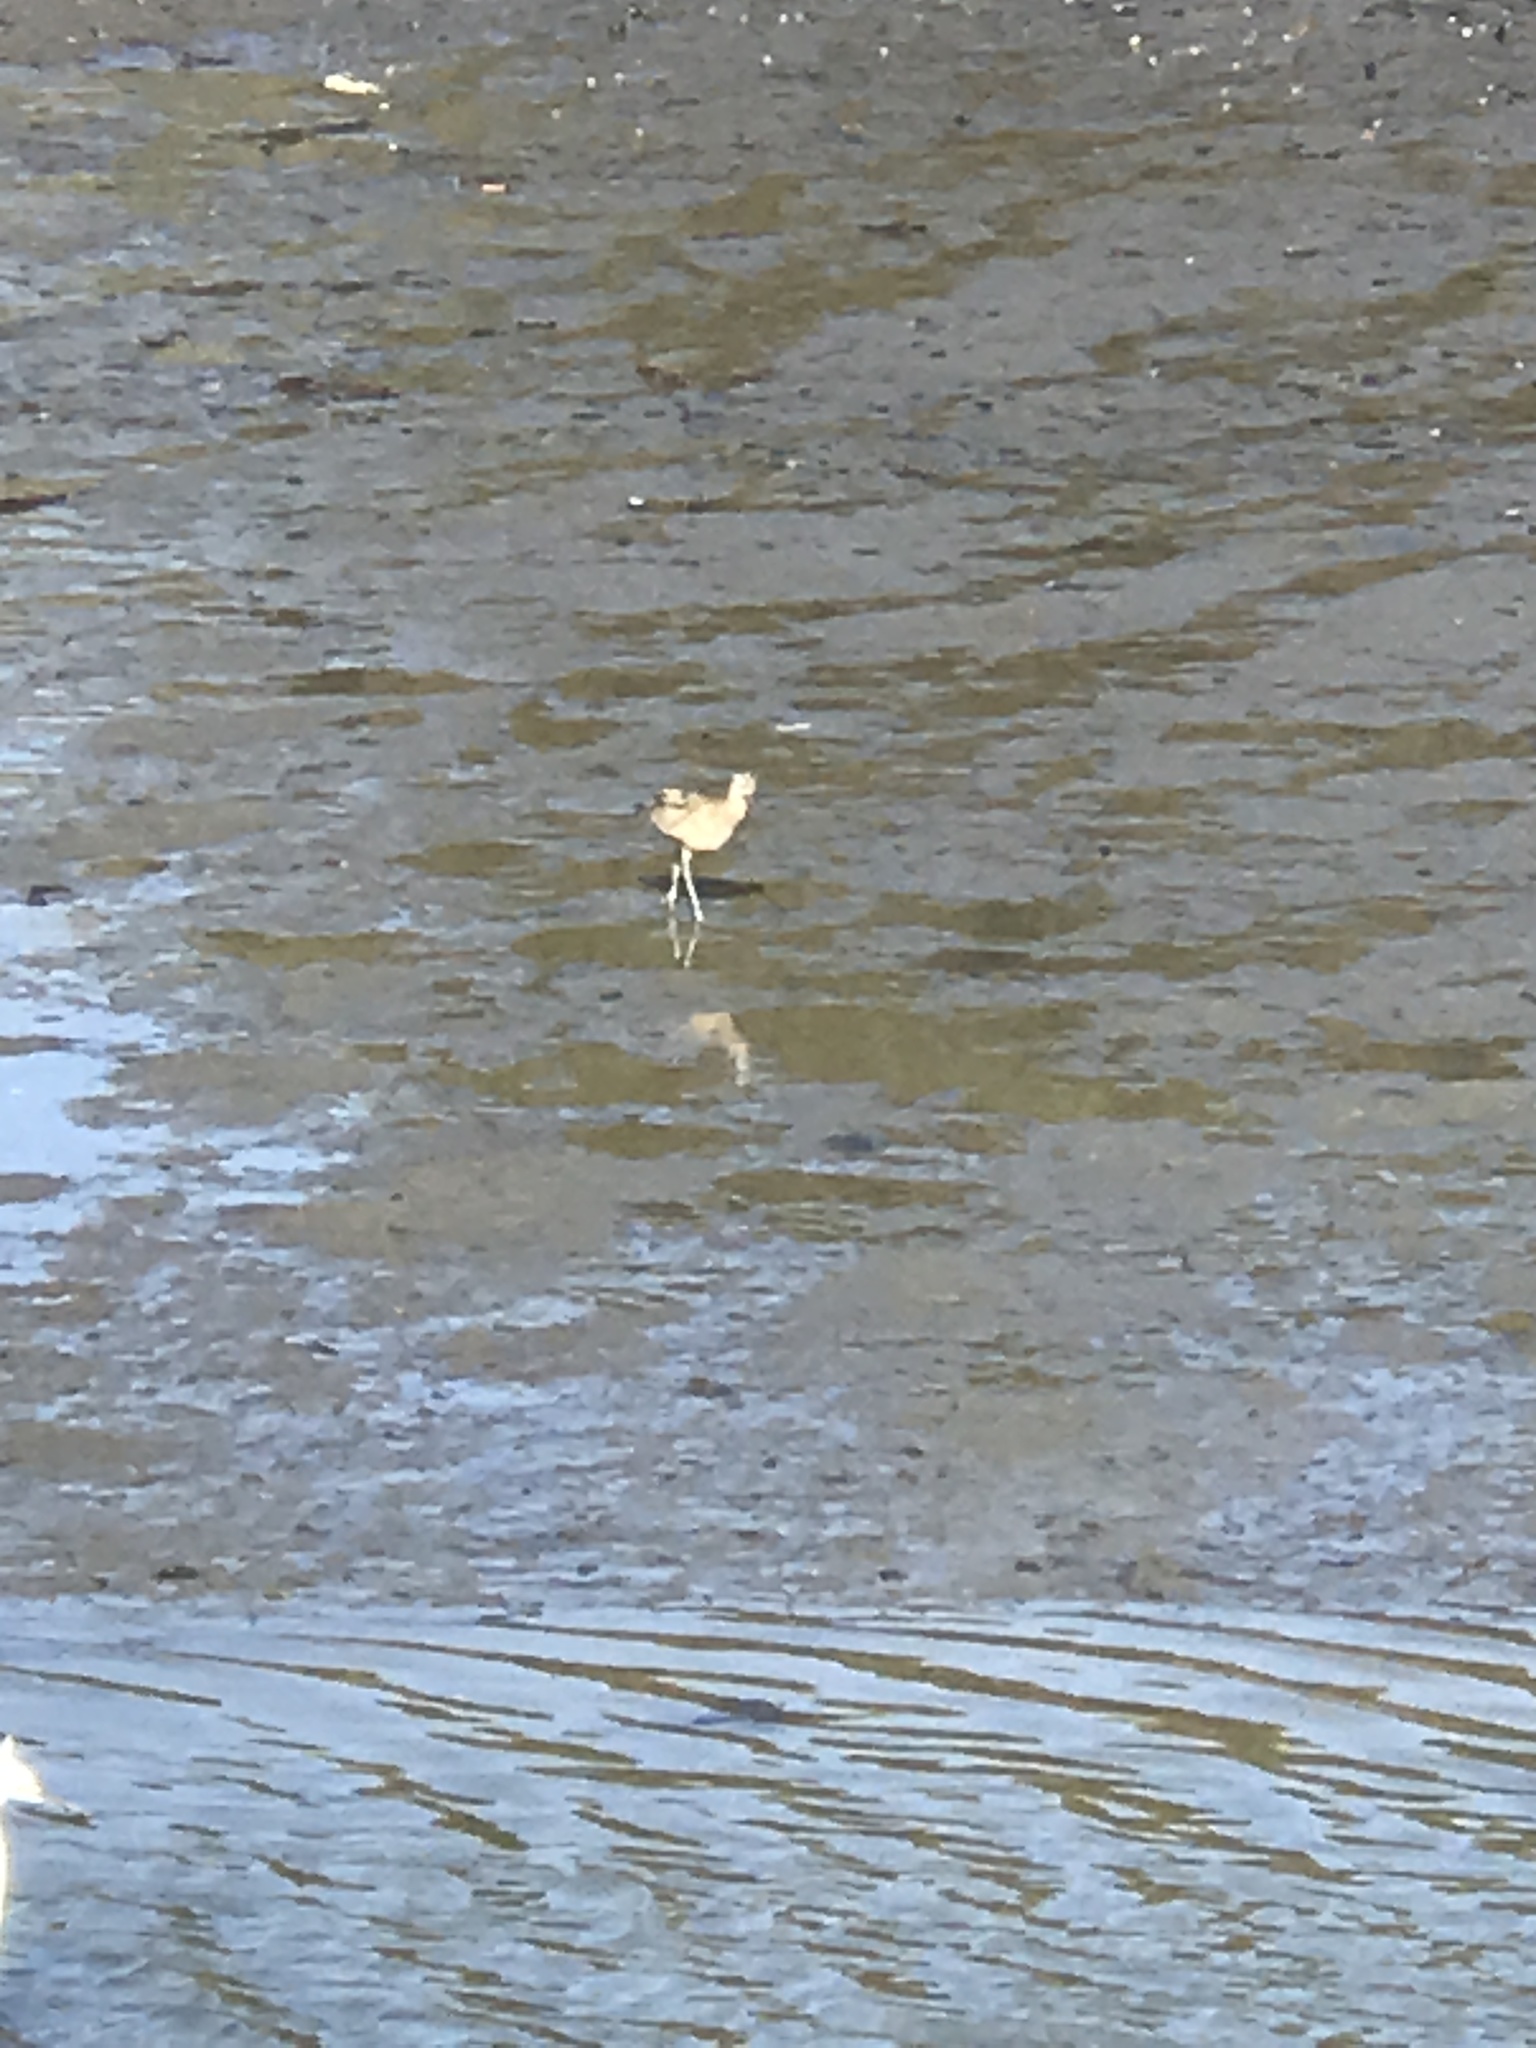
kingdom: Animalia
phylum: Chordata
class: Aves
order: Charadriiformes
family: Scolopacidae
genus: Numenius
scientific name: Numenius americanus
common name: Long-billed curlew
